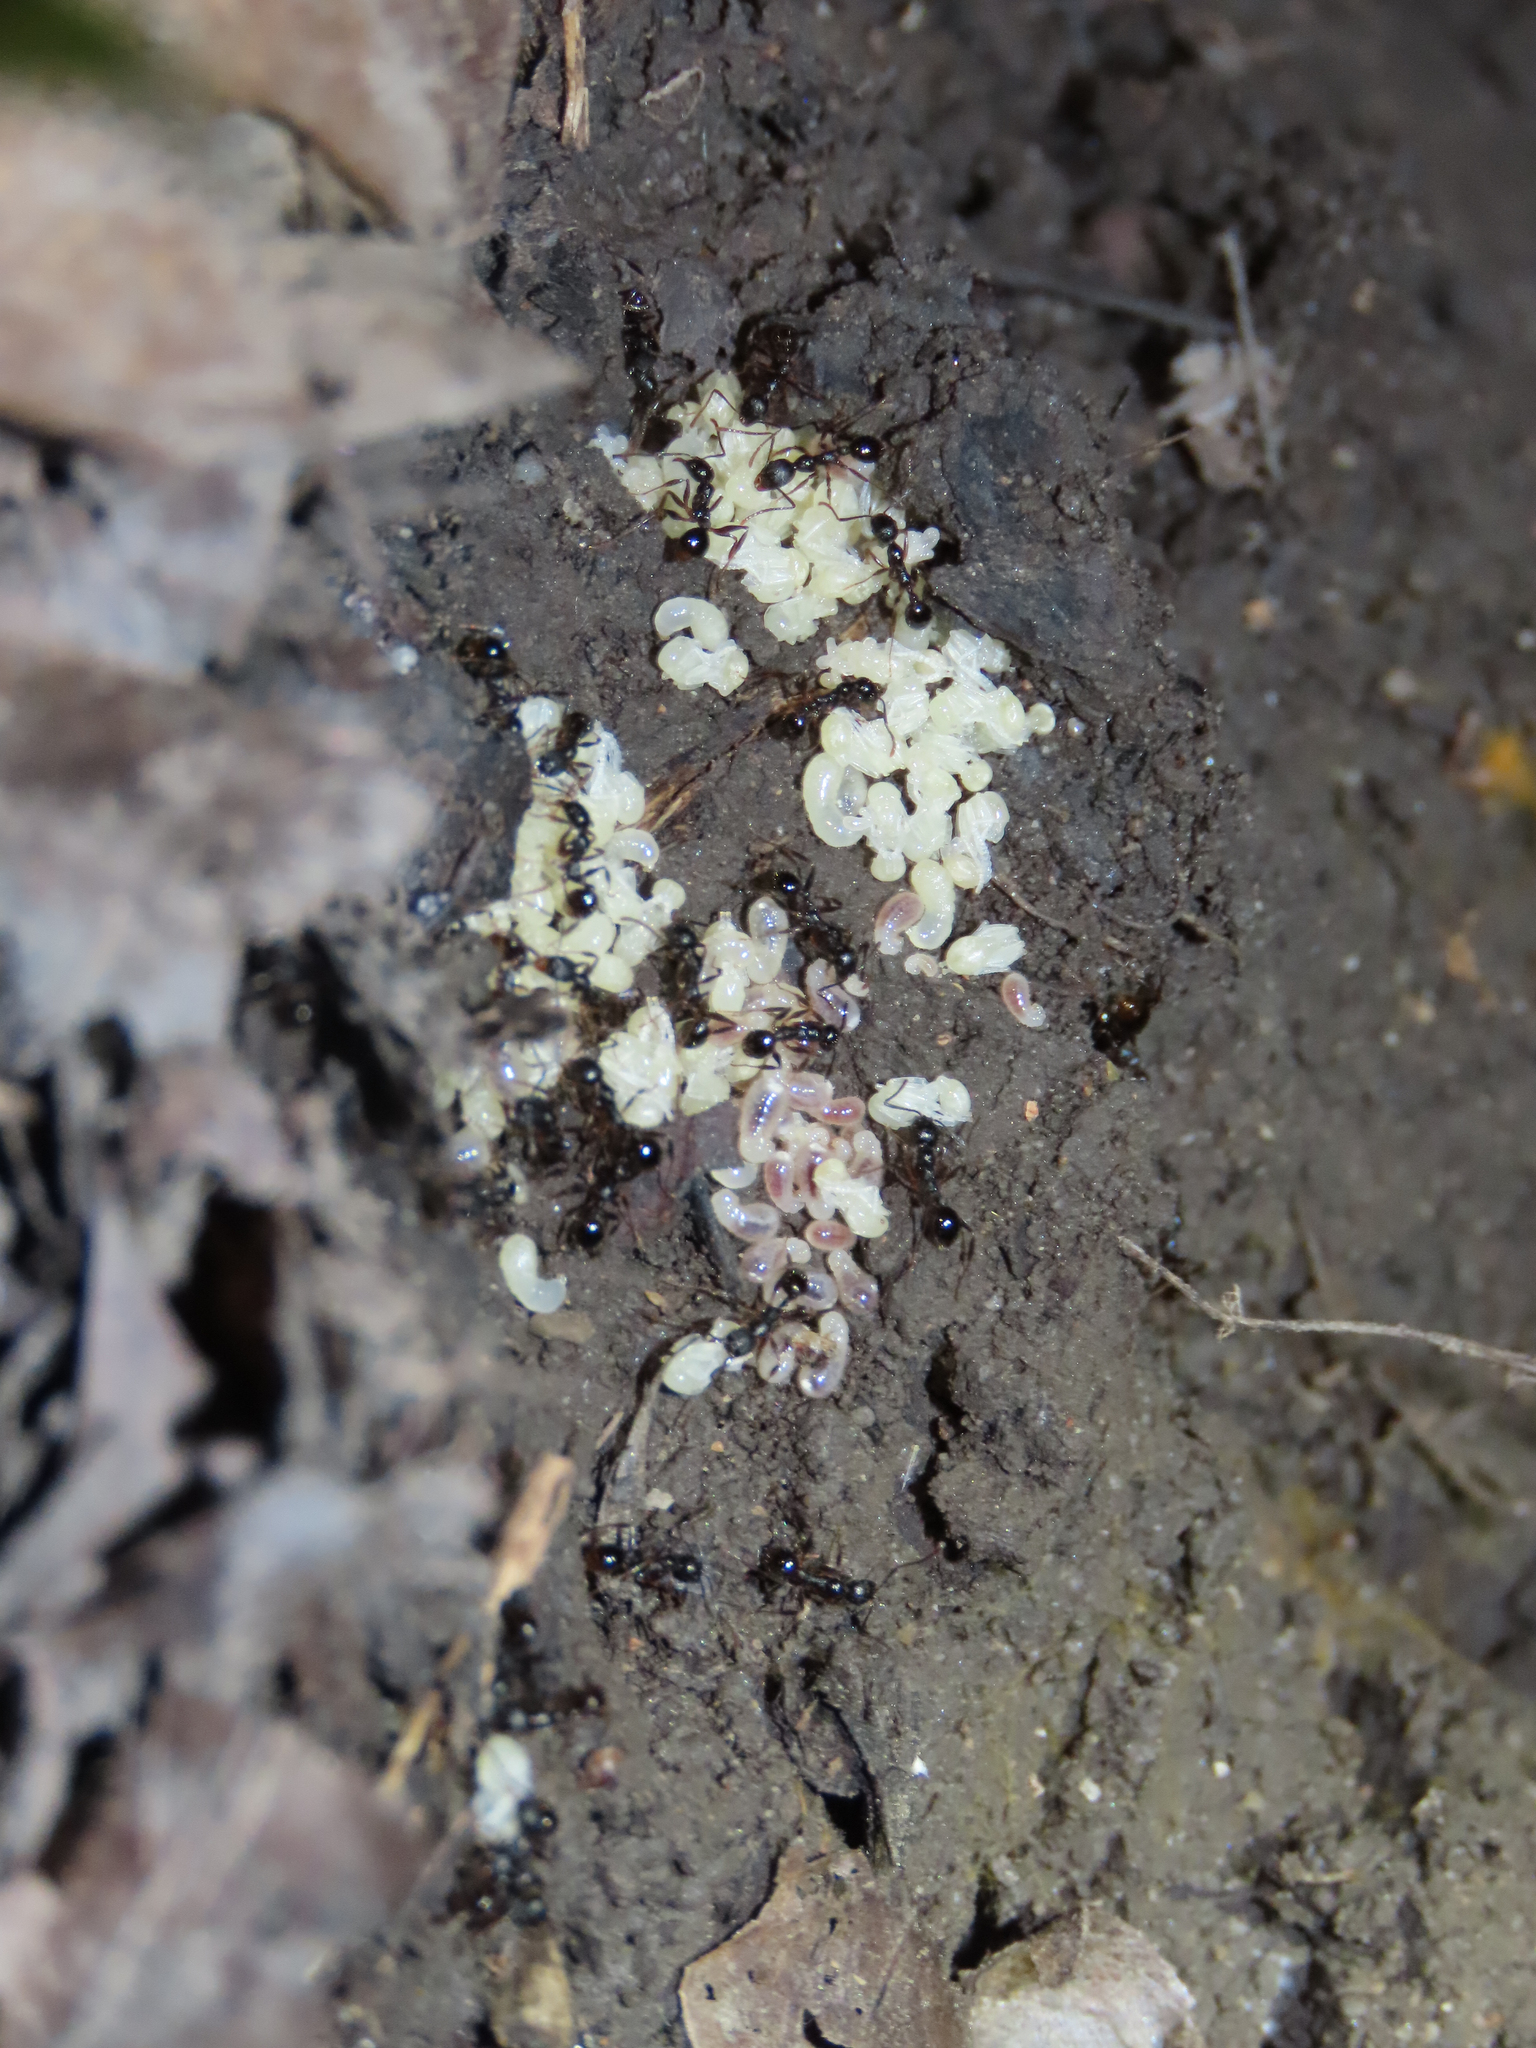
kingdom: Animalia
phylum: Arthropoda
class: Insecta
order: Hymenoptera
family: Formicidae
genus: Aphaenogaster
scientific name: Aphaenogaster picea
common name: Pitch-black collared ant
